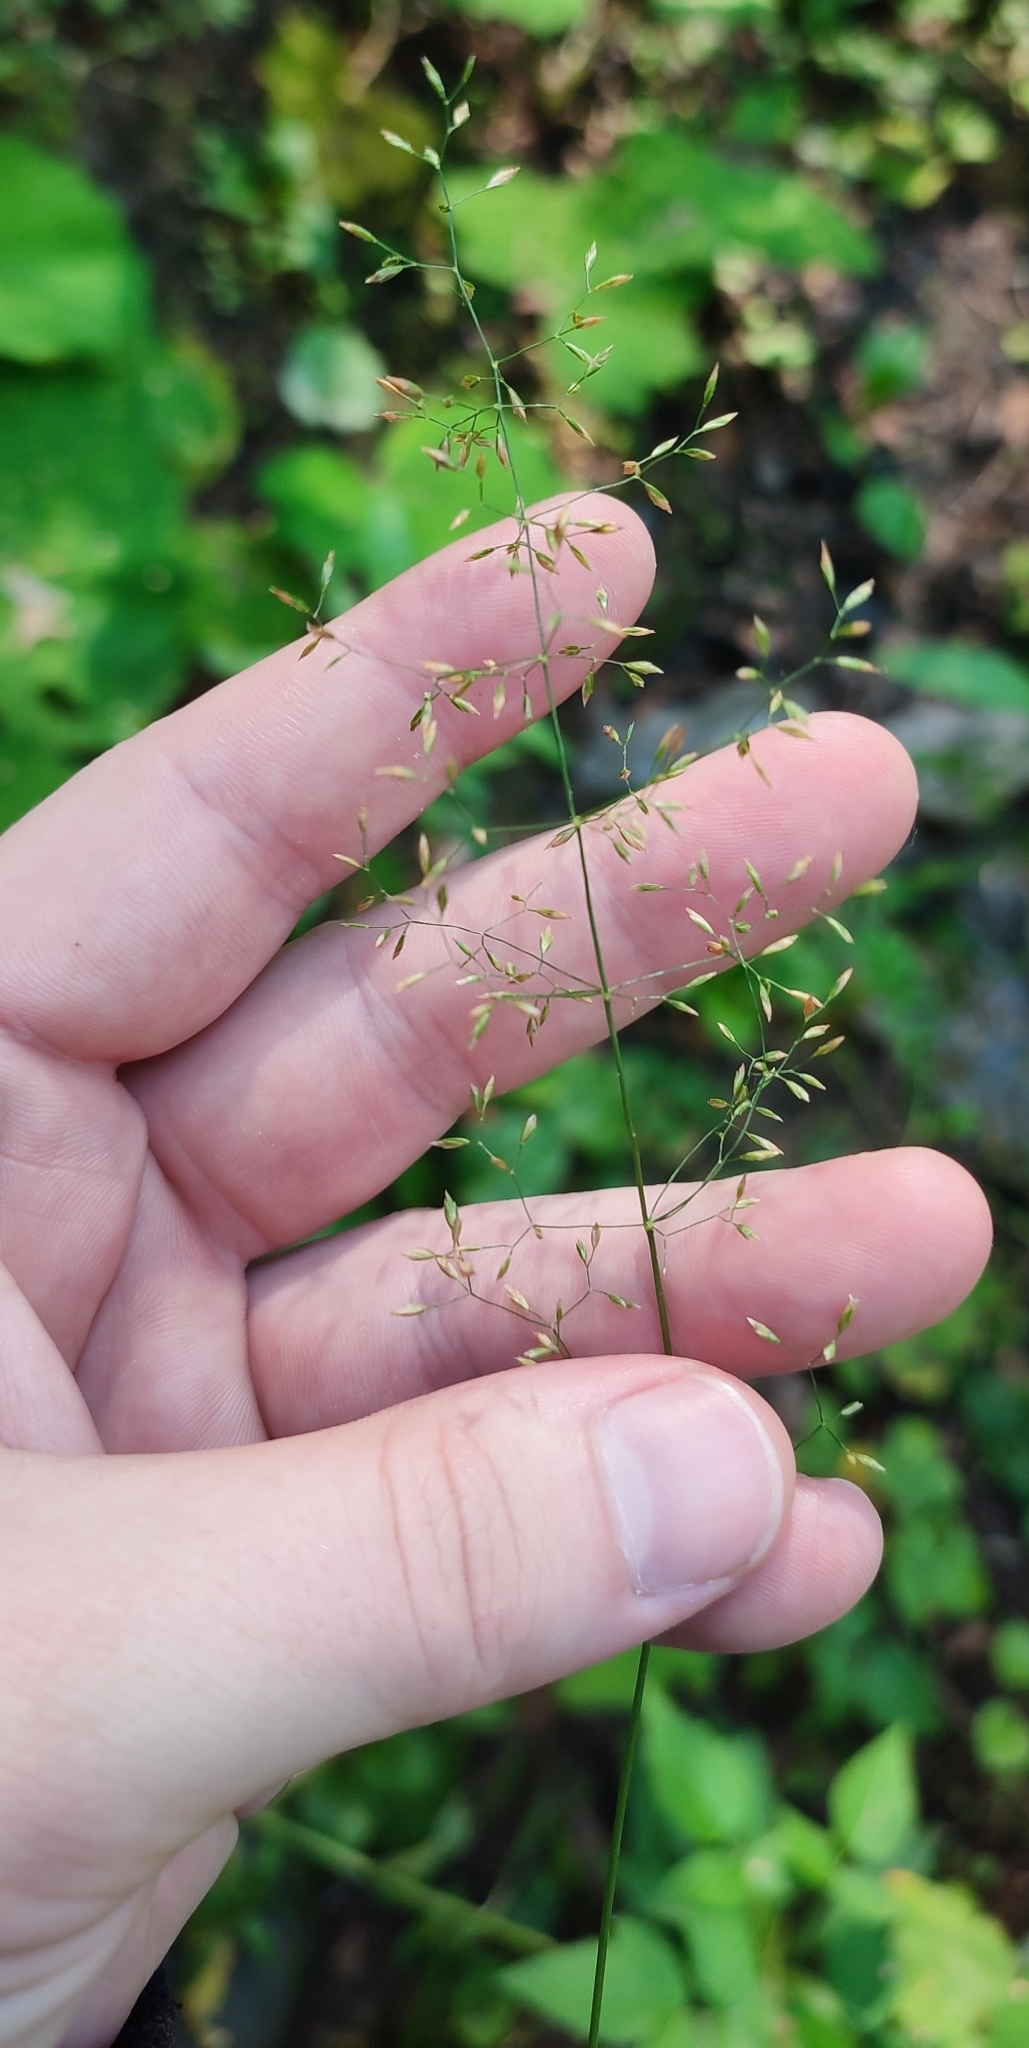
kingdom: Plantae
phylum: Tracheophyta
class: Liliopsida
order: Poales
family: Poaceae
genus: Poa
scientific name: Poa palustris
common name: Swamp meadow-grass
